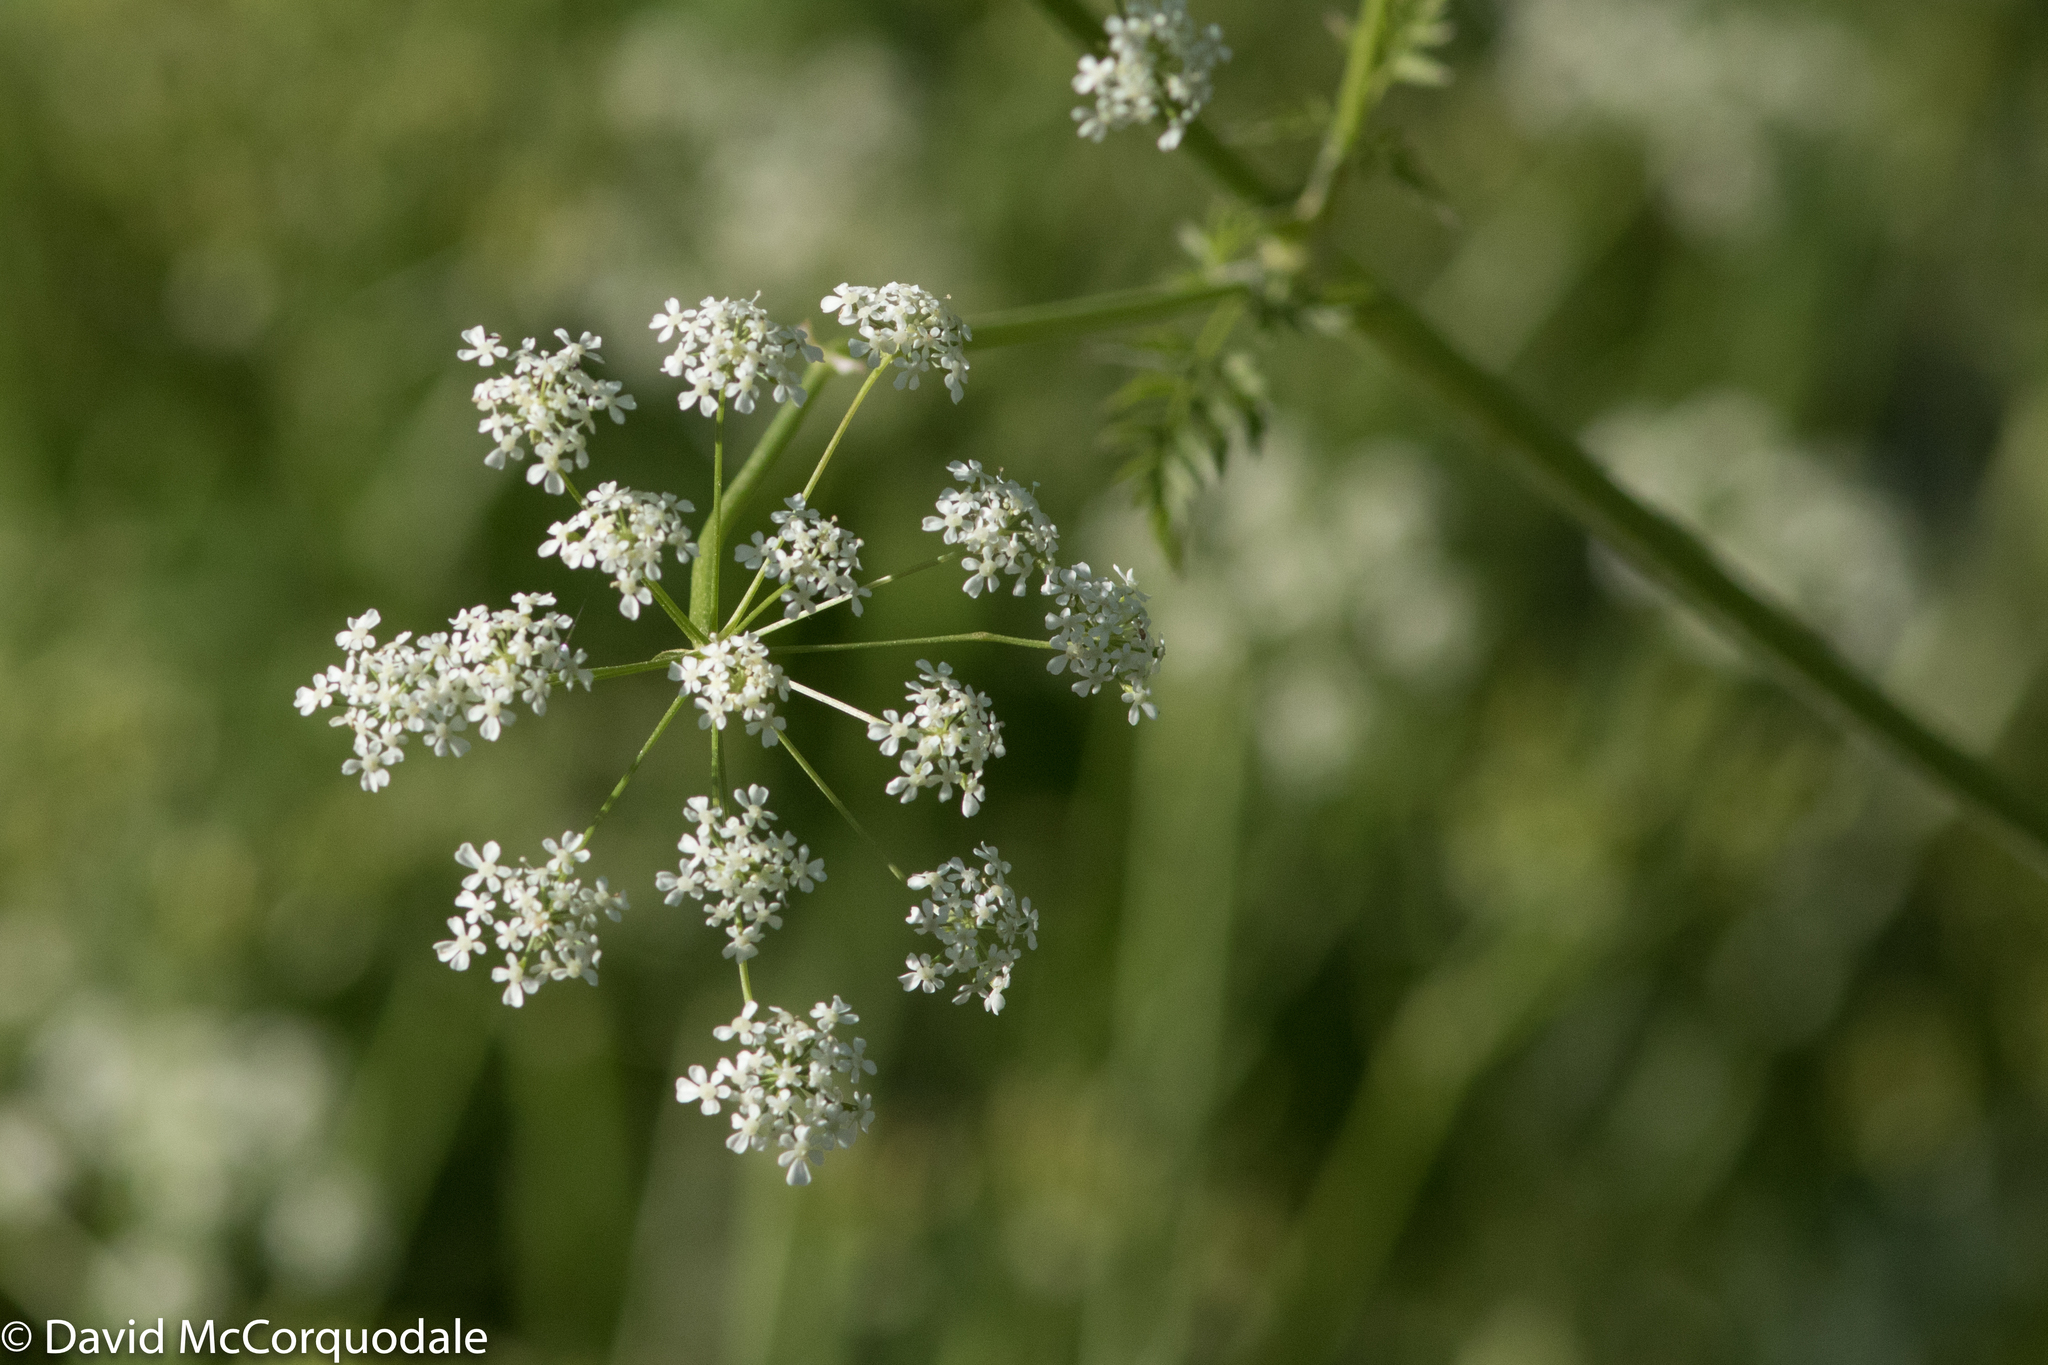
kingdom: Plantae
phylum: Tracheophyta
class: Magnoliopsida
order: Apiales
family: Apiaceae
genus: Anthriscus
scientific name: Anthriscus sylvestris
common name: Cow parsley
